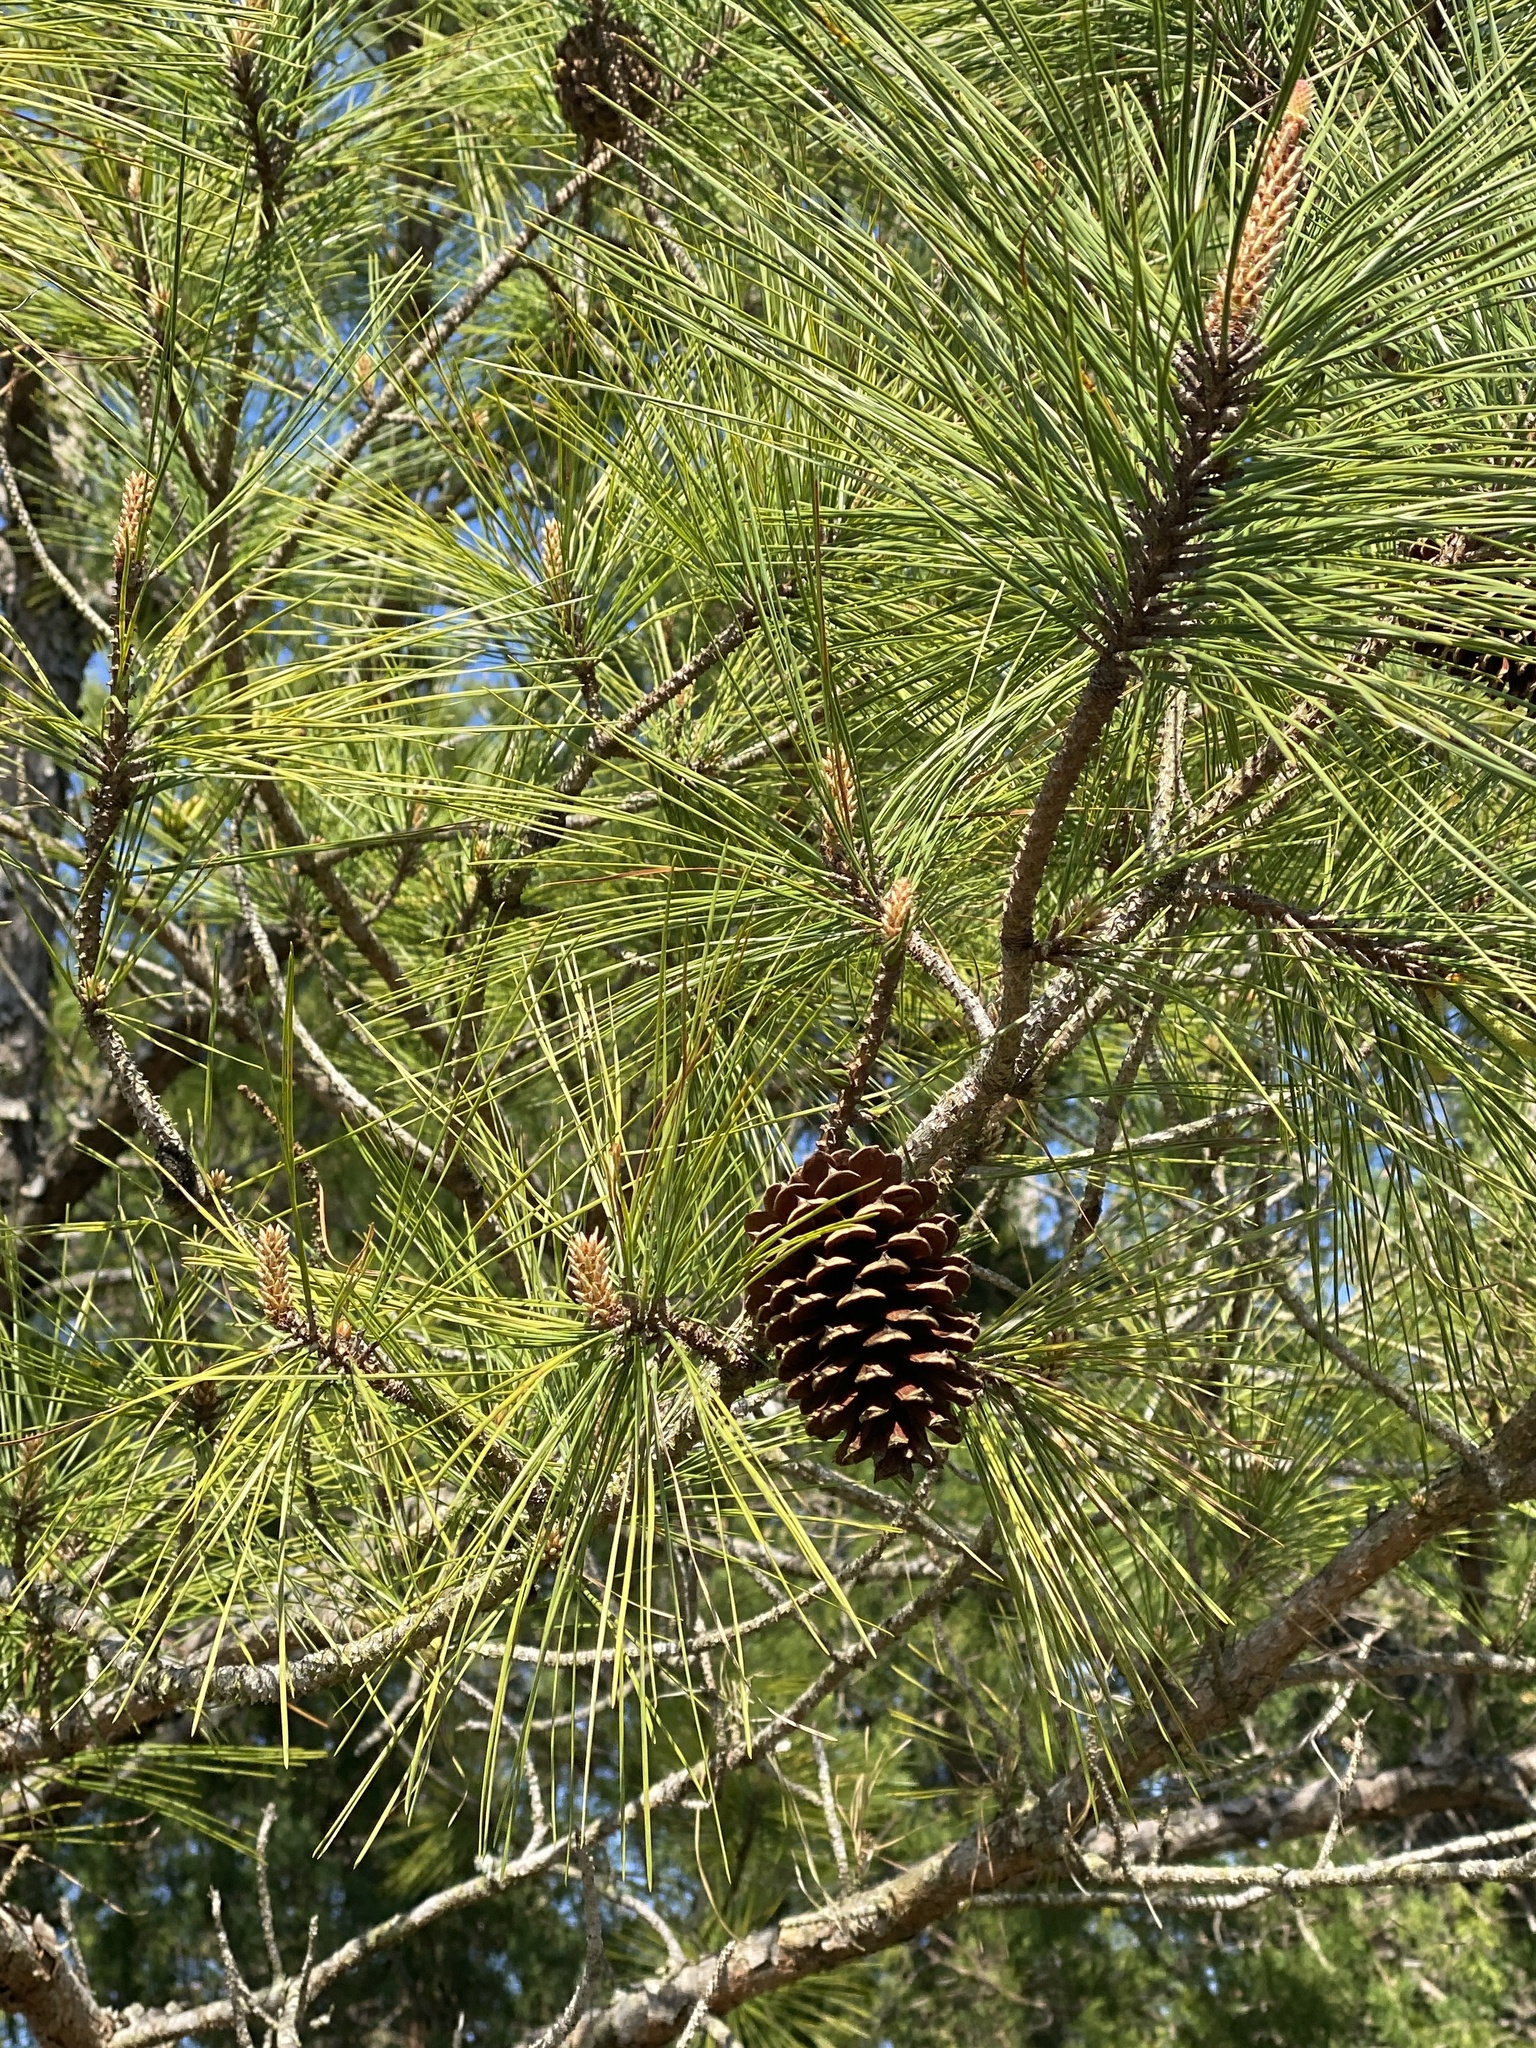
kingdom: Plantae
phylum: Tracheophyta
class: Pinopsida
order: Pinales
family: Pinaceae
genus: Pinus
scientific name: Pinus taeda
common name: Loblolly pine
